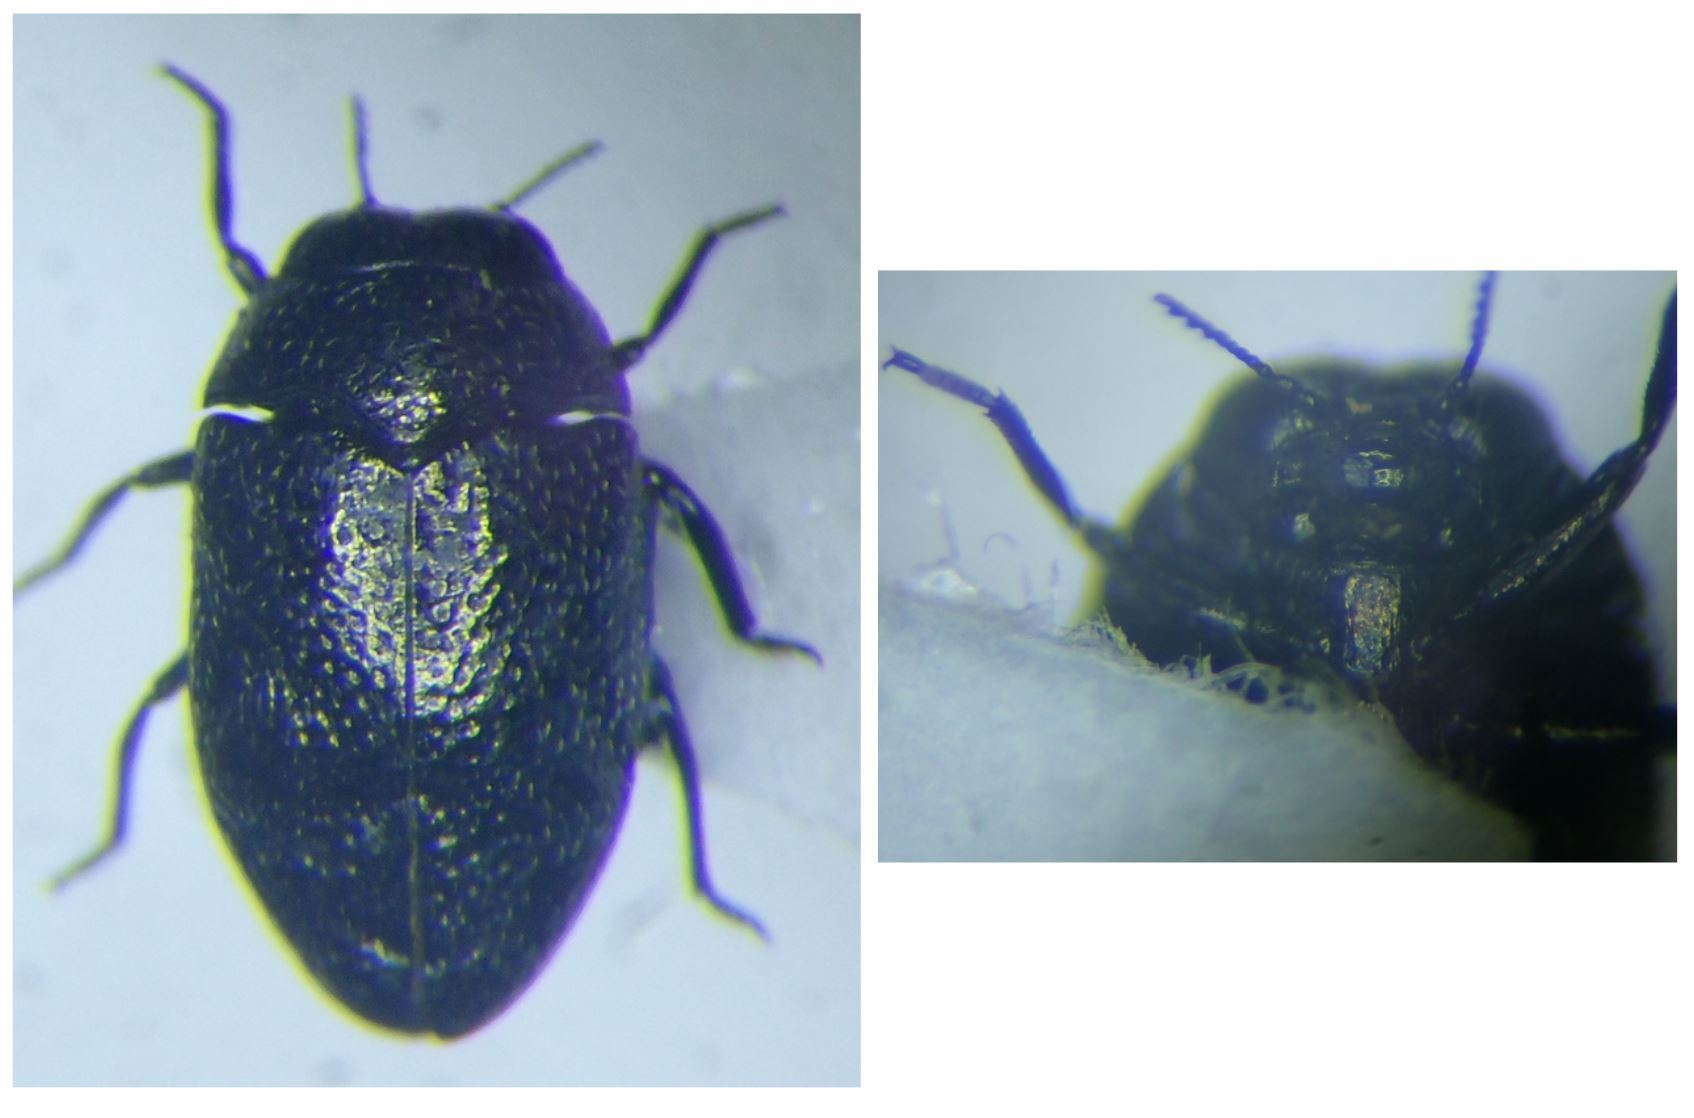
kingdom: Animalia
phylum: Arthropoda
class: Insecta
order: Coleoptera
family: Buprestidae
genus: Trachys
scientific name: Trachys quercicolus
